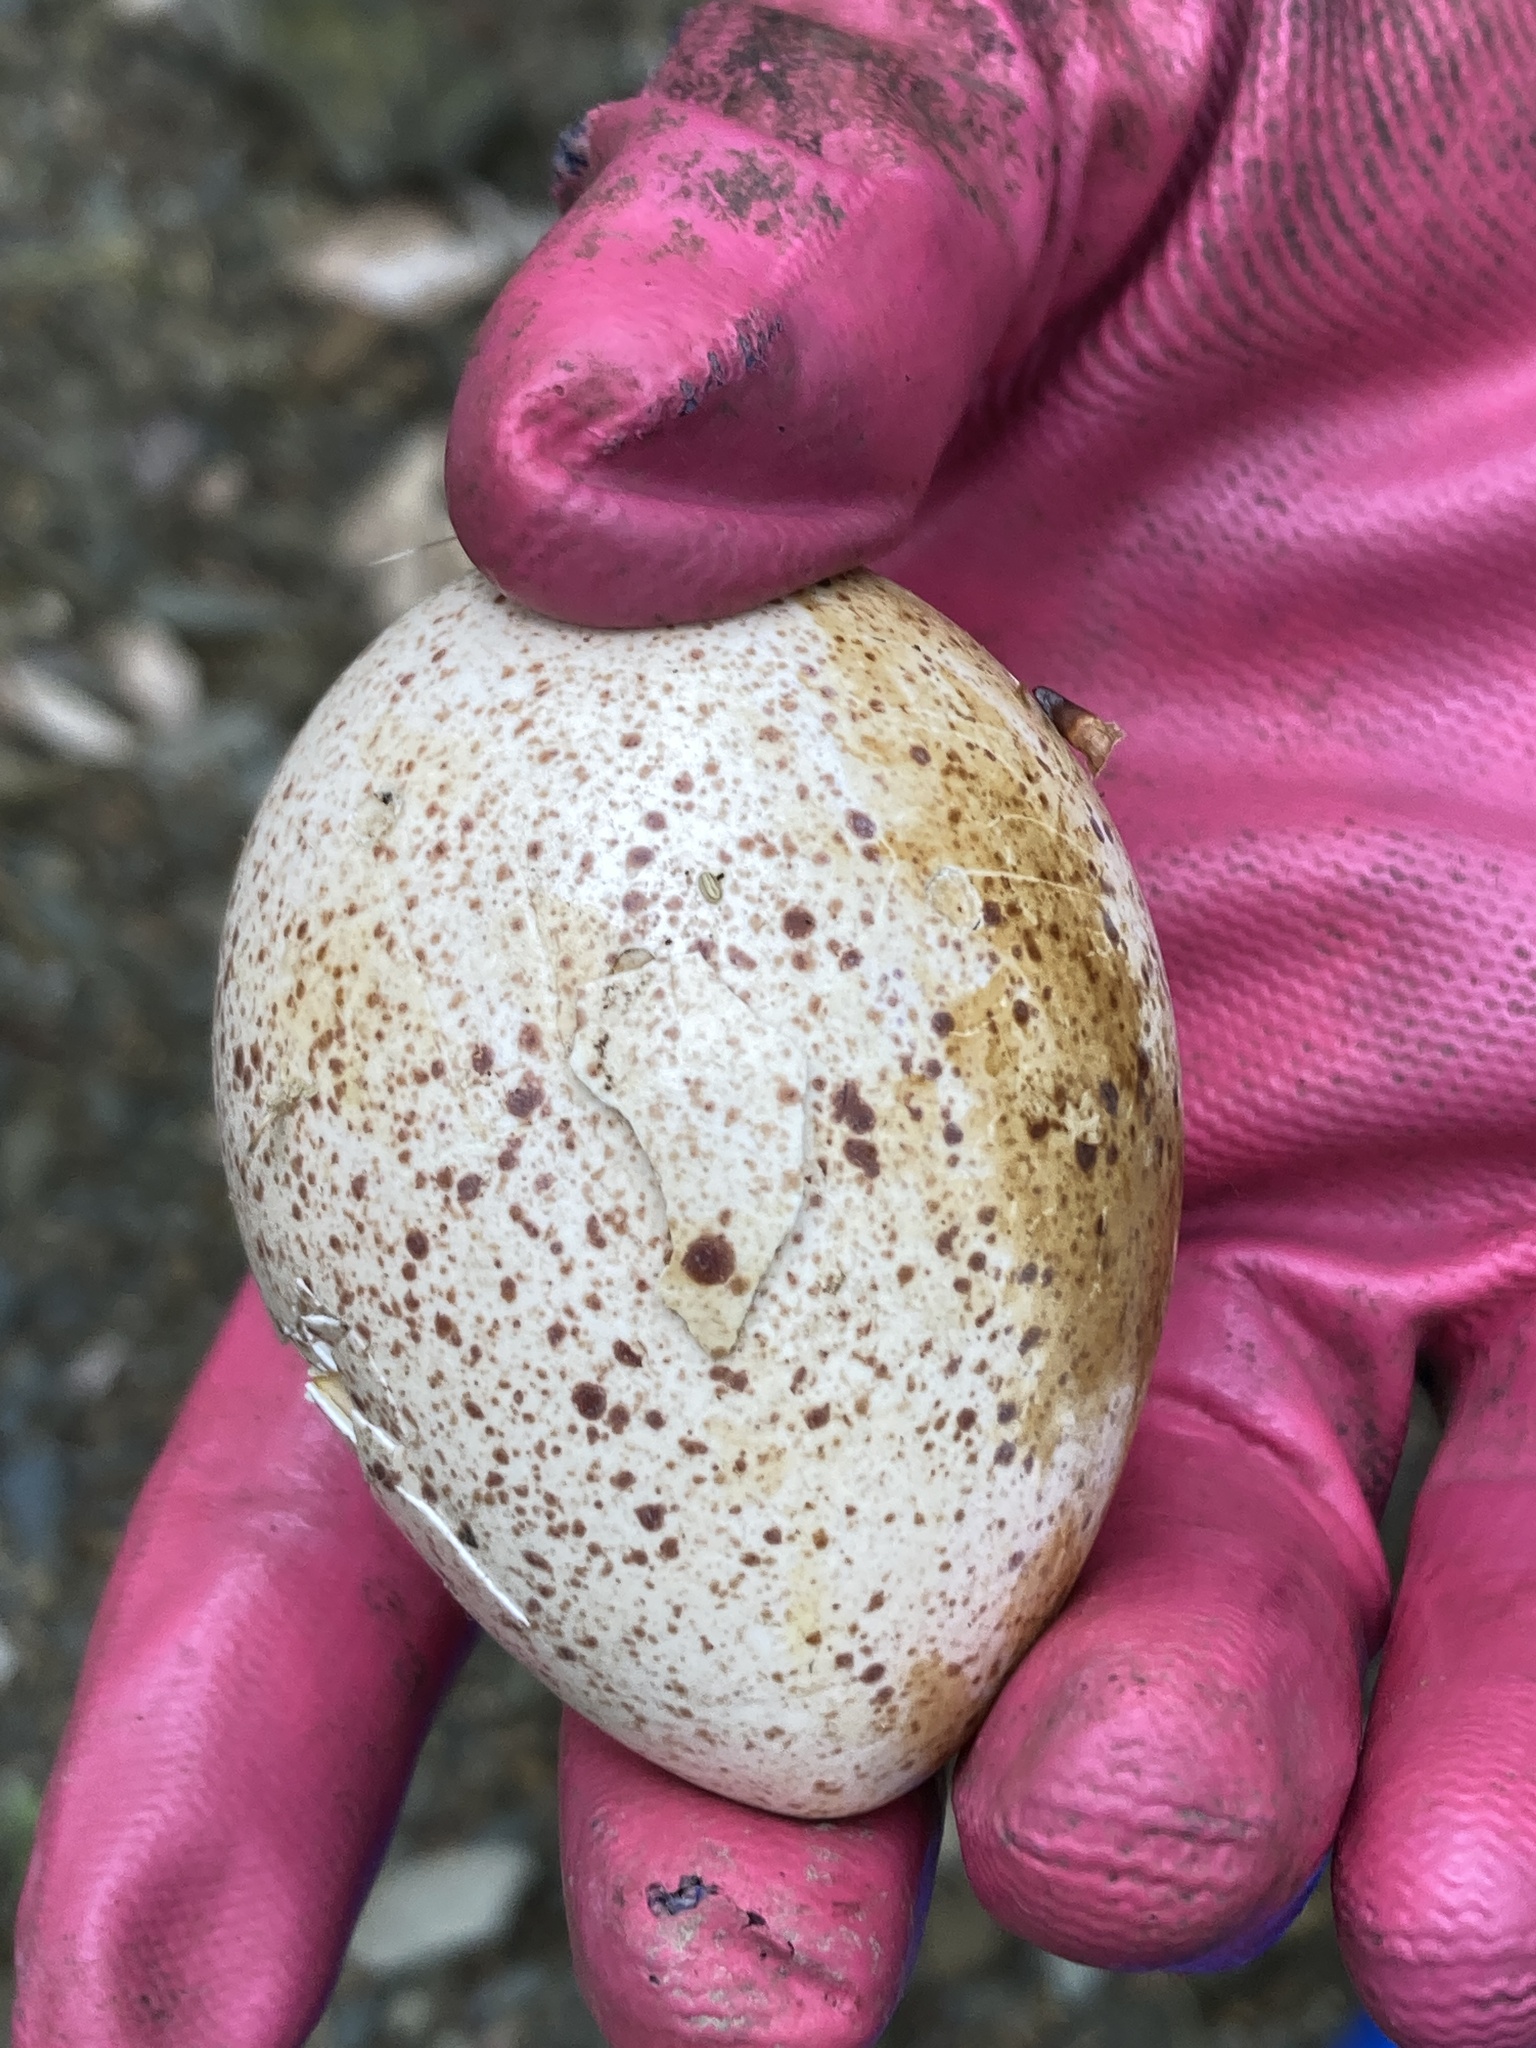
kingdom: Animalia
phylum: Chordata
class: Aves
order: Galliformes
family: Phasianidae
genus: Meleagris
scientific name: Meleagris gallopavo
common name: Wild turkey
